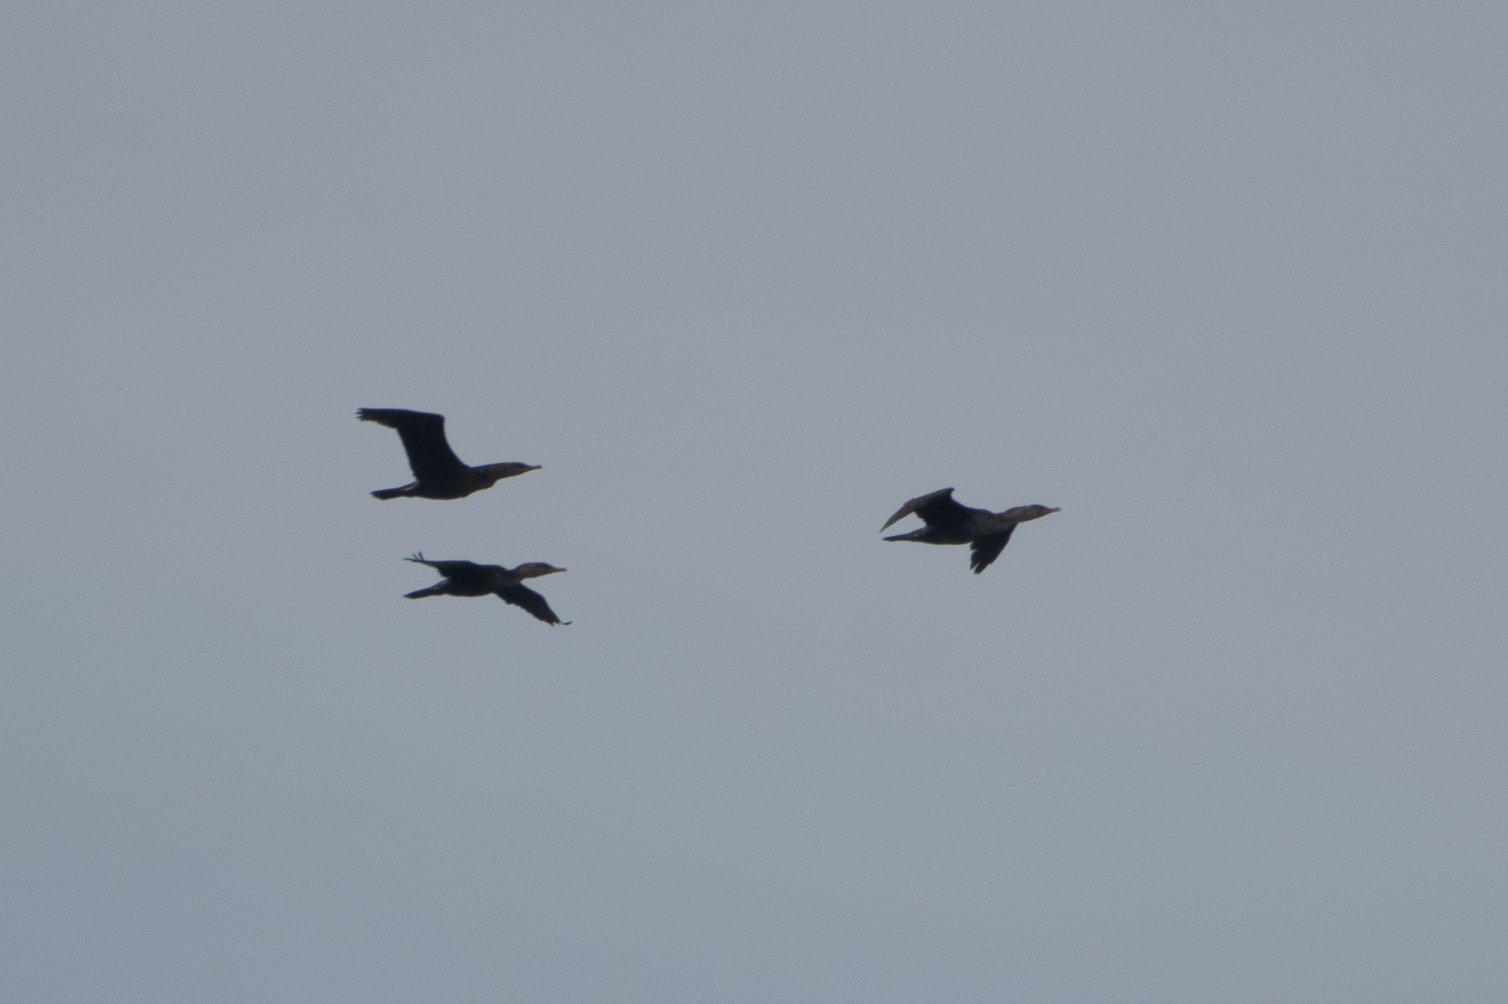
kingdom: Animalia
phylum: Chordata
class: Aves
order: Suliformes
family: Phalacrocoracidae
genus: Phalacrocorax
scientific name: Phalacrocorax auritus
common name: Double-crested cormorant
